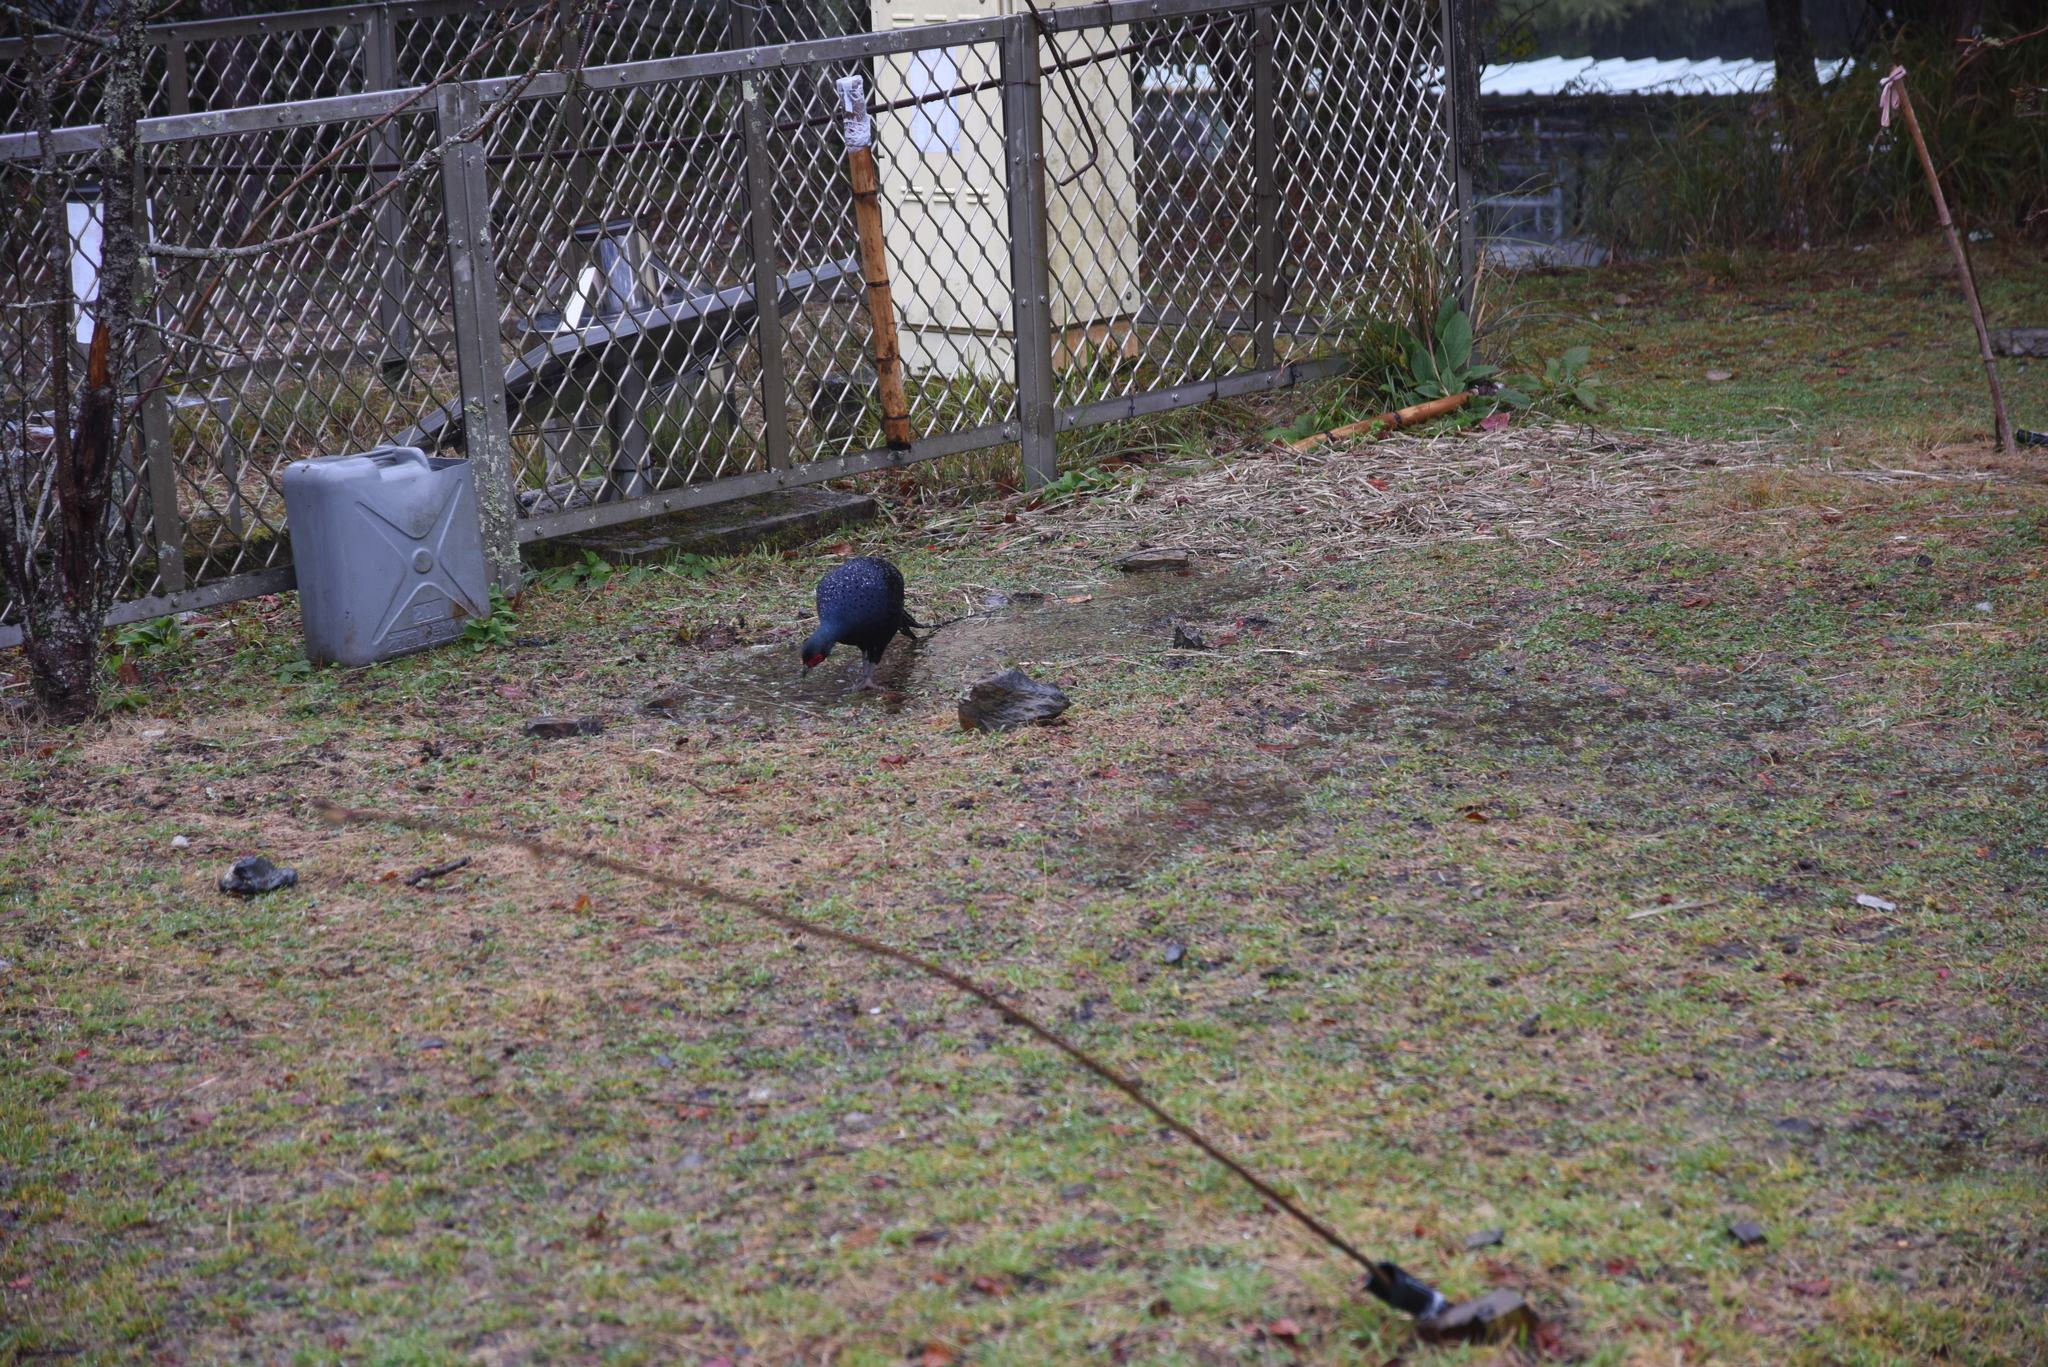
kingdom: Animalia
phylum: Chordata
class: Aves
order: Galliformes
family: Phasianidae
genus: Syrmaticus
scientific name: Syrmaticus mikado
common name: Mikado pheasant
